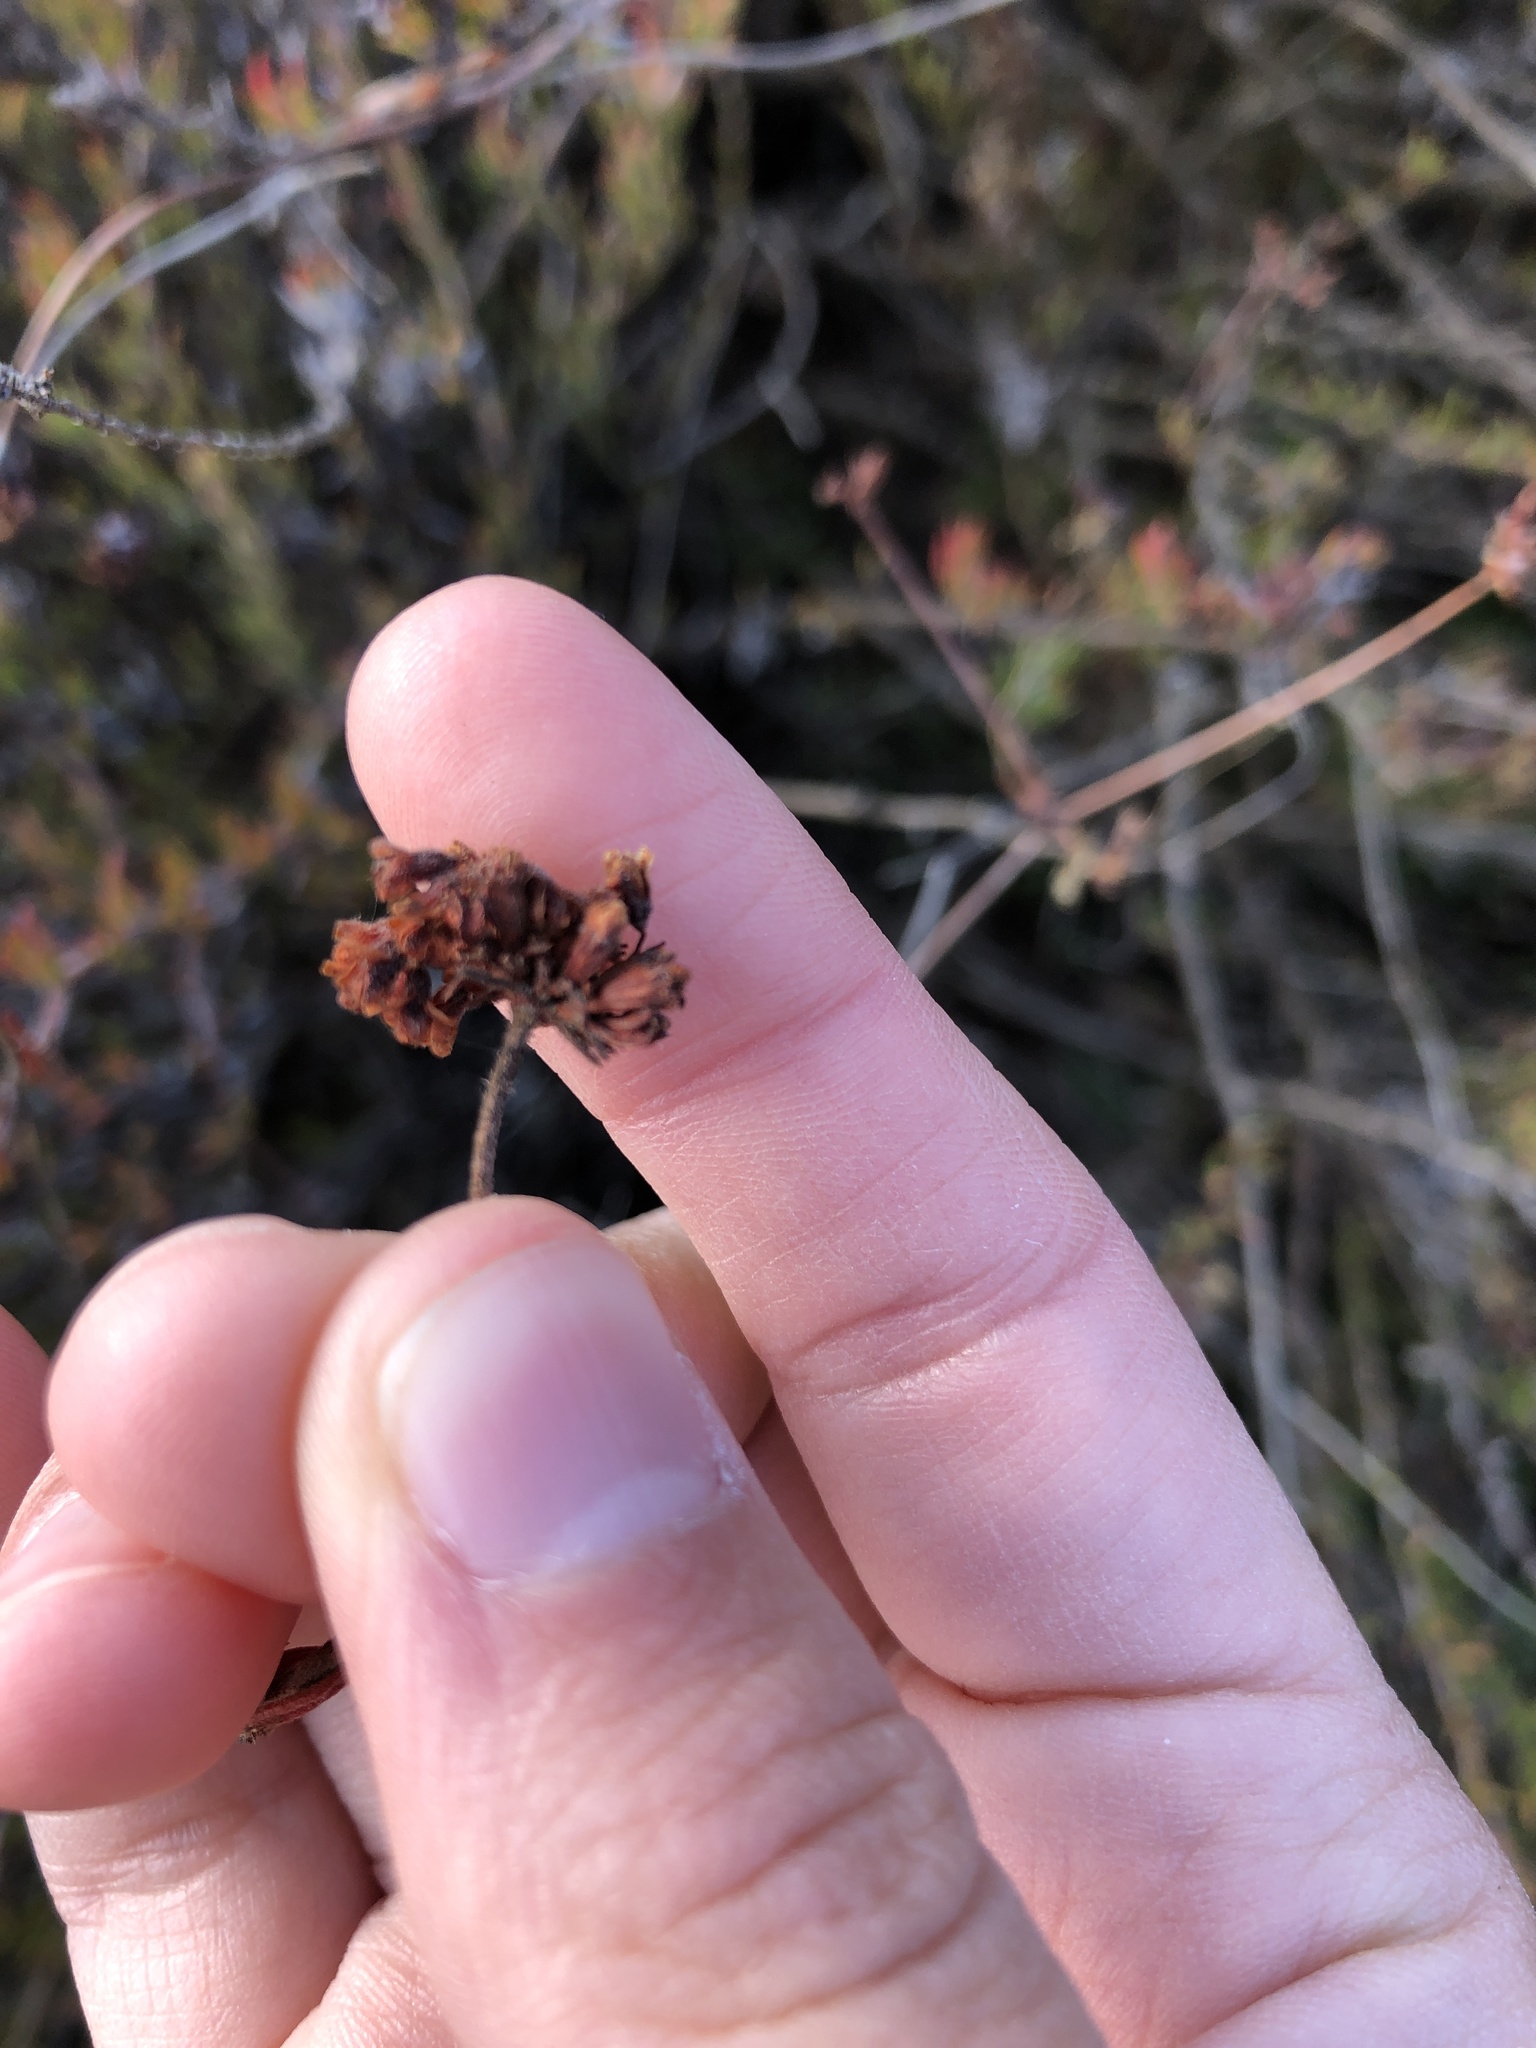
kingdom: Plantae
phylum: Tracheophyta
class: Magnoliopsida
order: Caryophyllales
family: Polygonaceae
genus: Eriogonum
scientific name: Eriogonum fasciculatum
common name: California wild buckwheat
